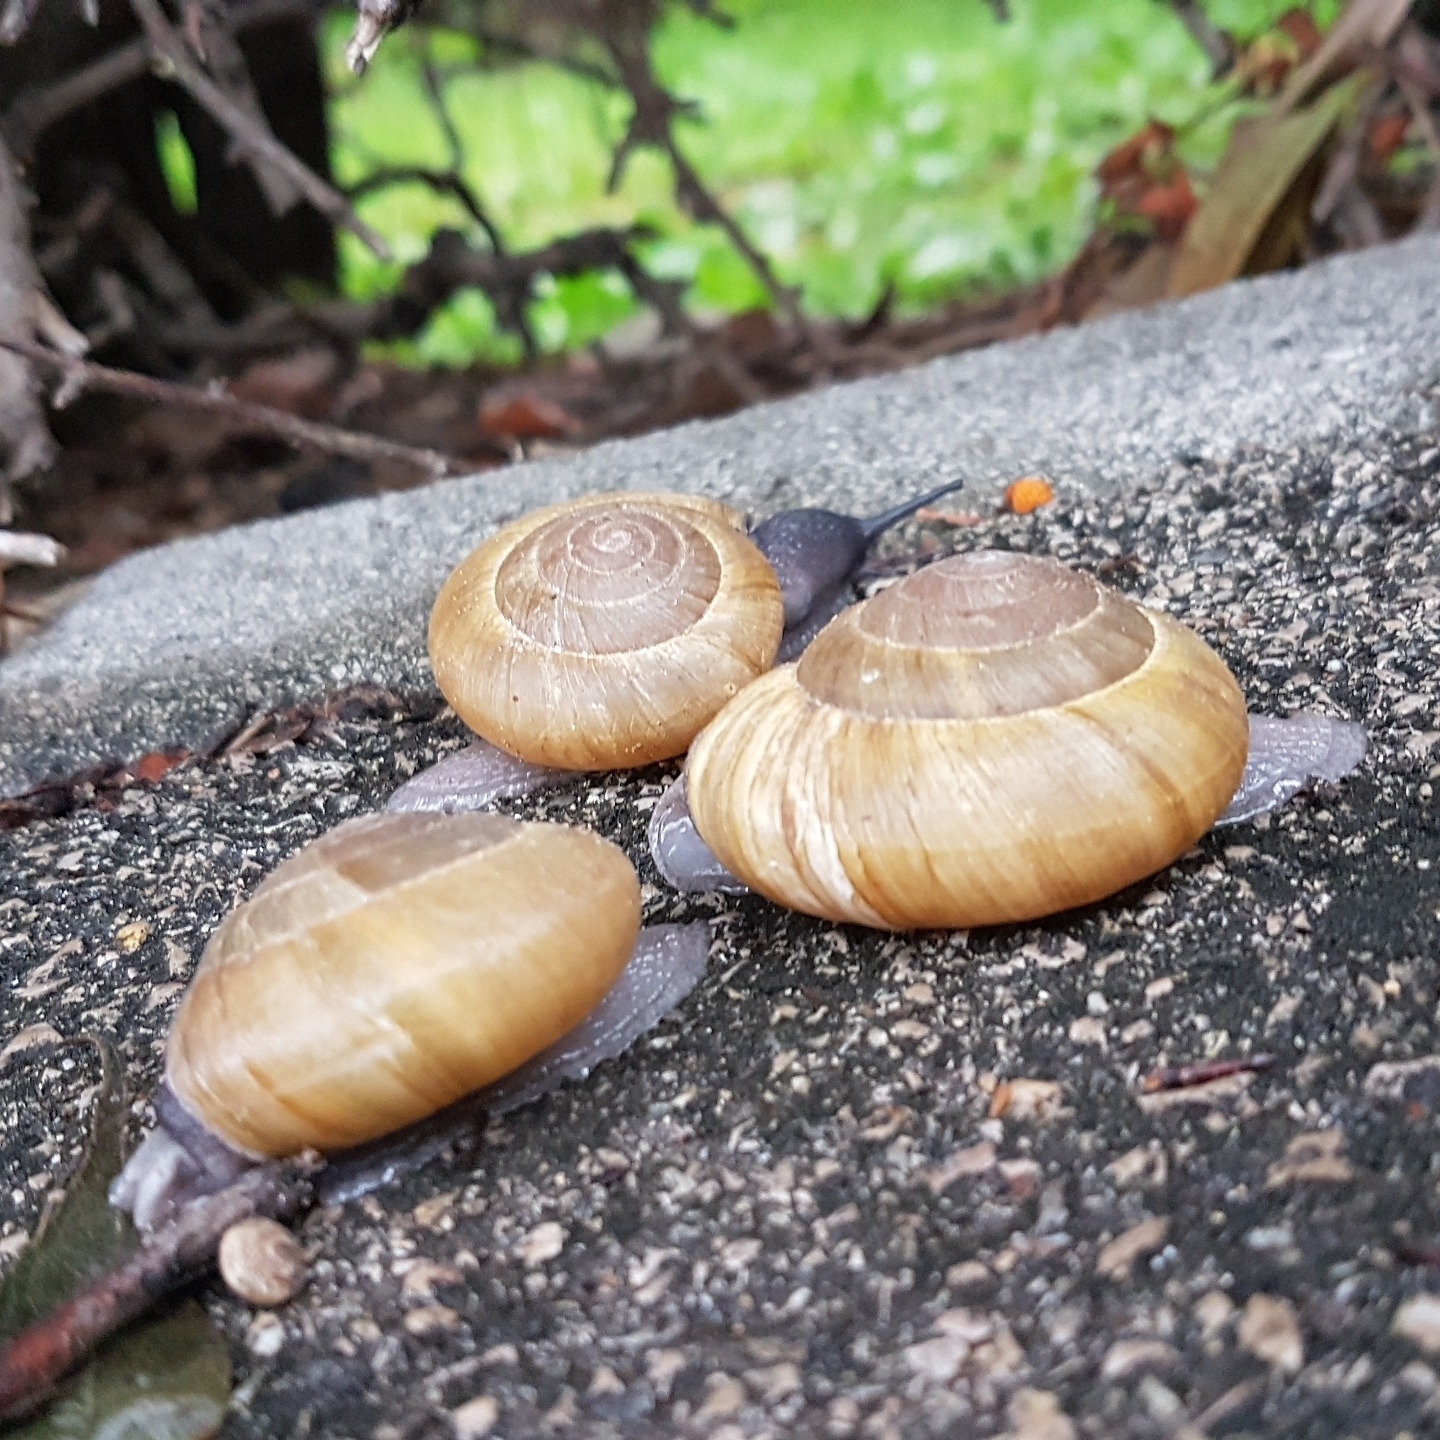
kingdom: Animalia
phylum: Mollusca
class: Gastropoda
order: Stylommatophora
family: Zonitidae
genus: Zonites
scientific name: Zonites algirus
